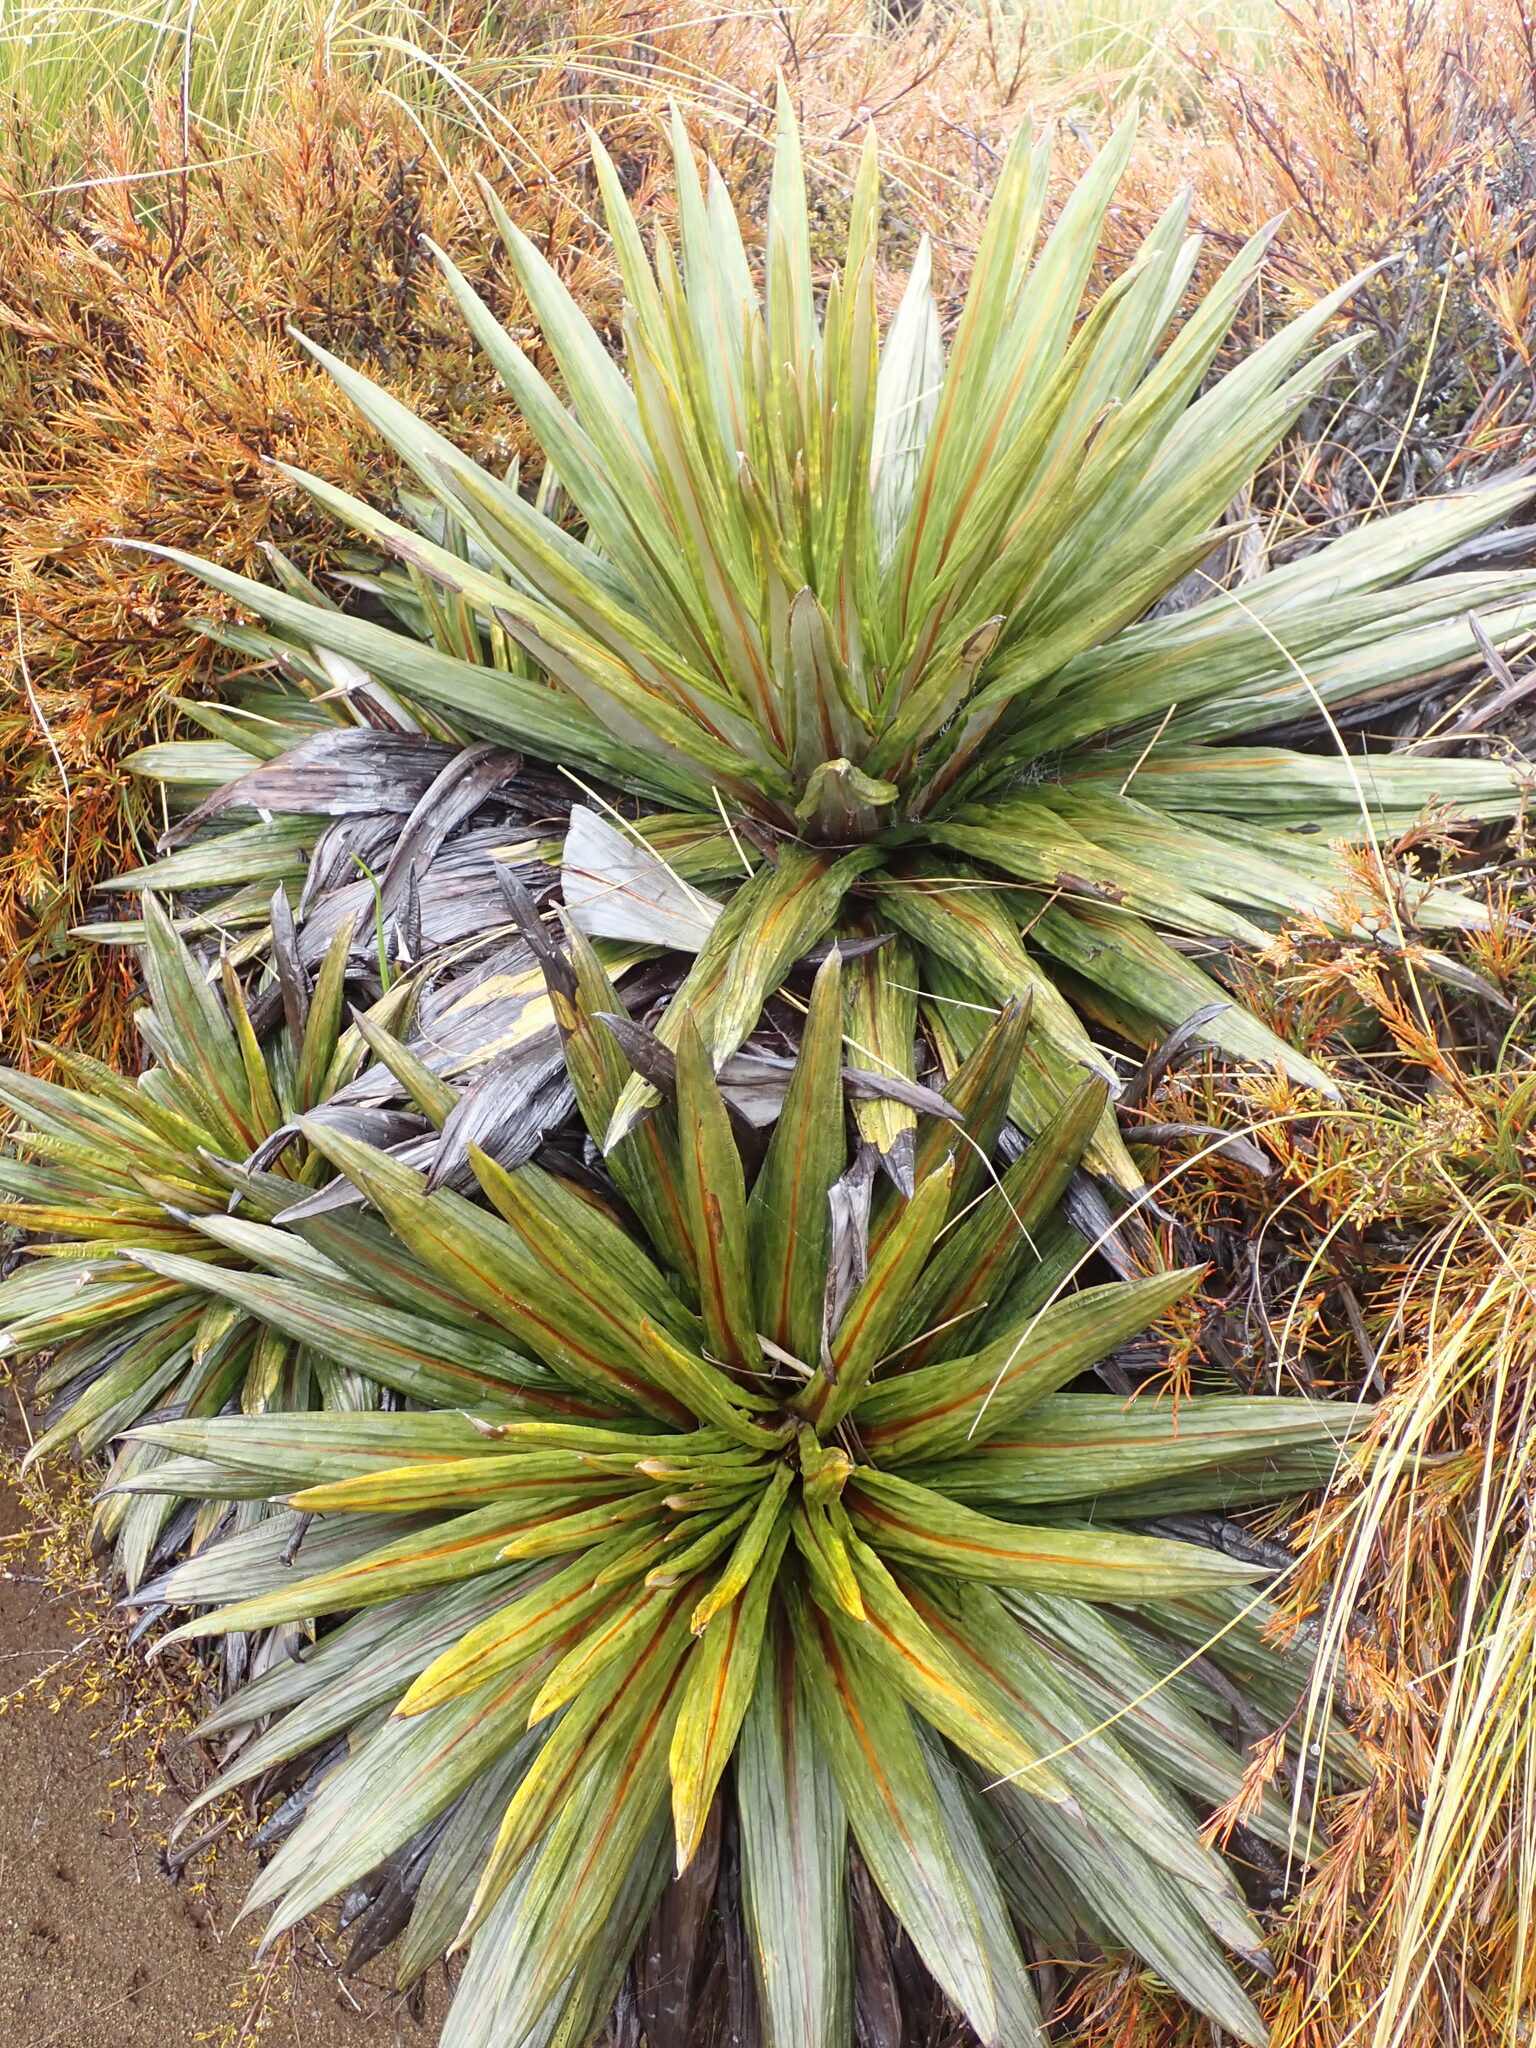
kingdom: Plantae
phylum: Tracheophyta
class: Magnoliopsida
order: Asterales
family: Asteraceae
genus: Celmisia
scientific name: Celmisia coriacea
